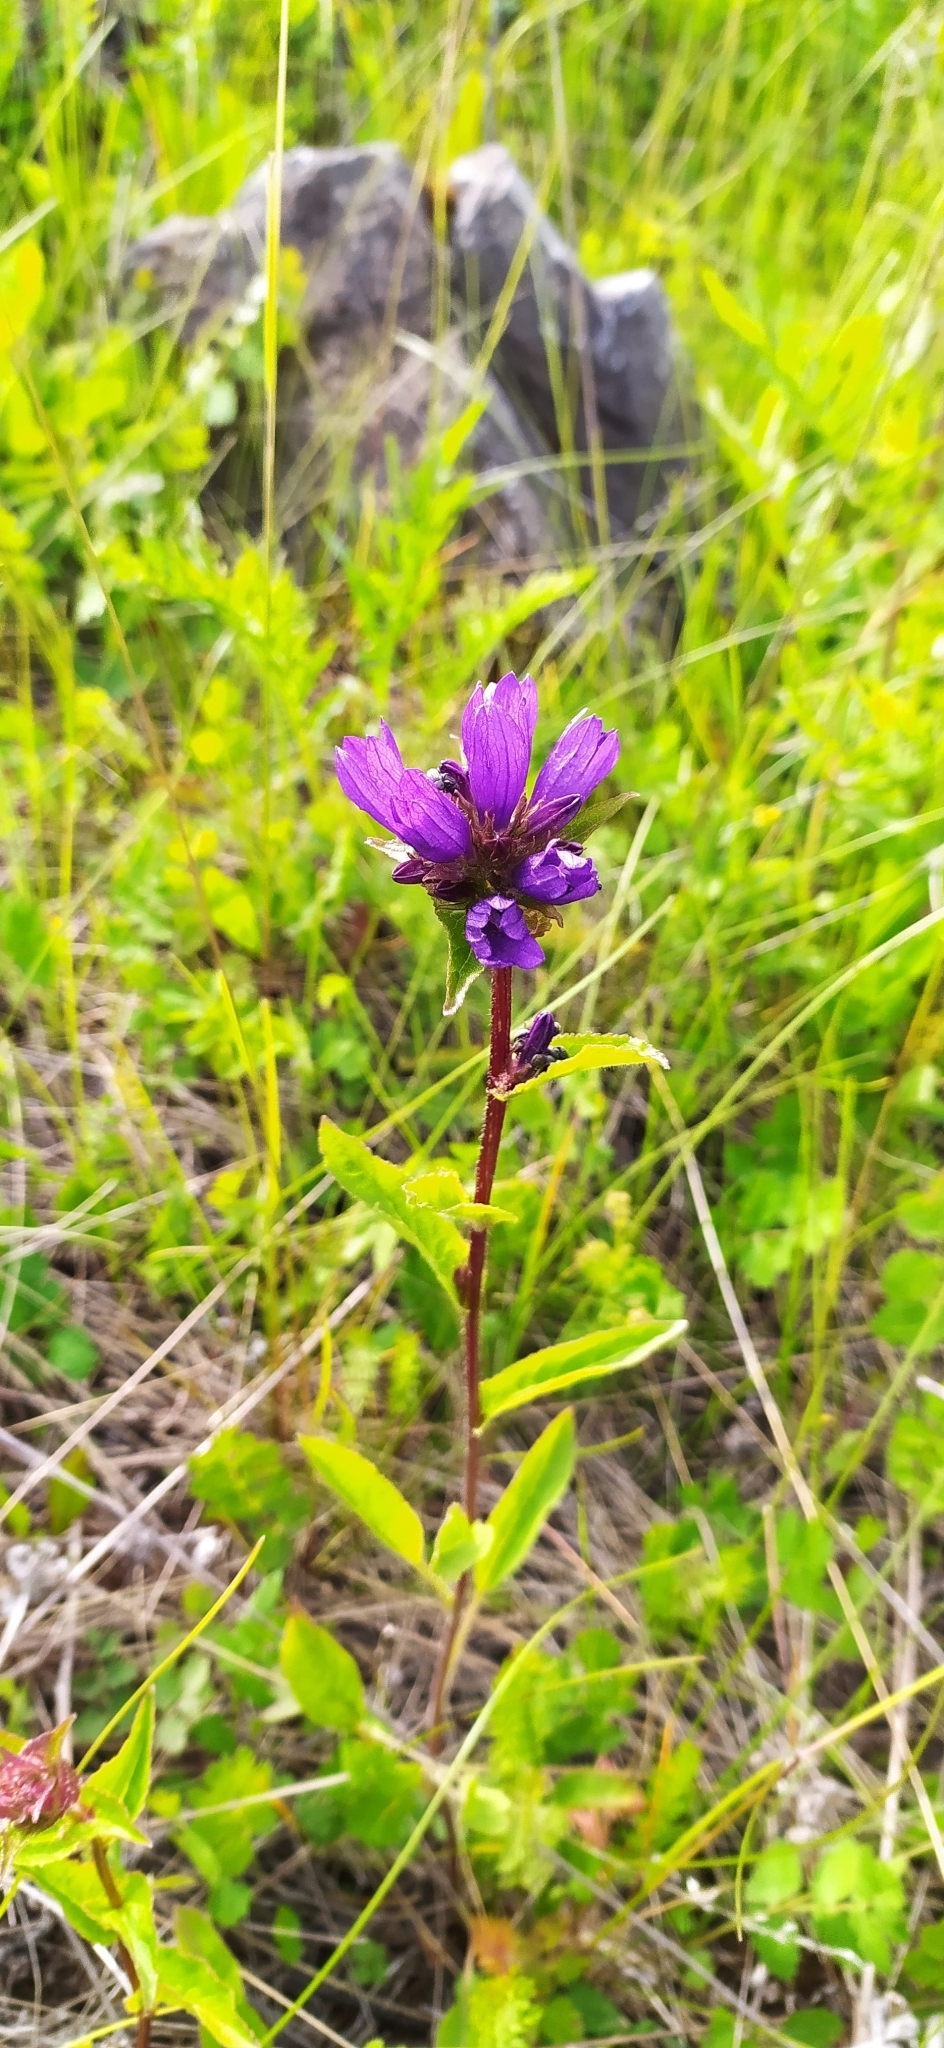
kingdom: Plantae
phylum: Tracheophyta
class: Magnoliopsida
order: Asterales
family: Campanulaceae
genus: Campanula
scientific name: Campanula glomerata
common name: Clustered bellflower
